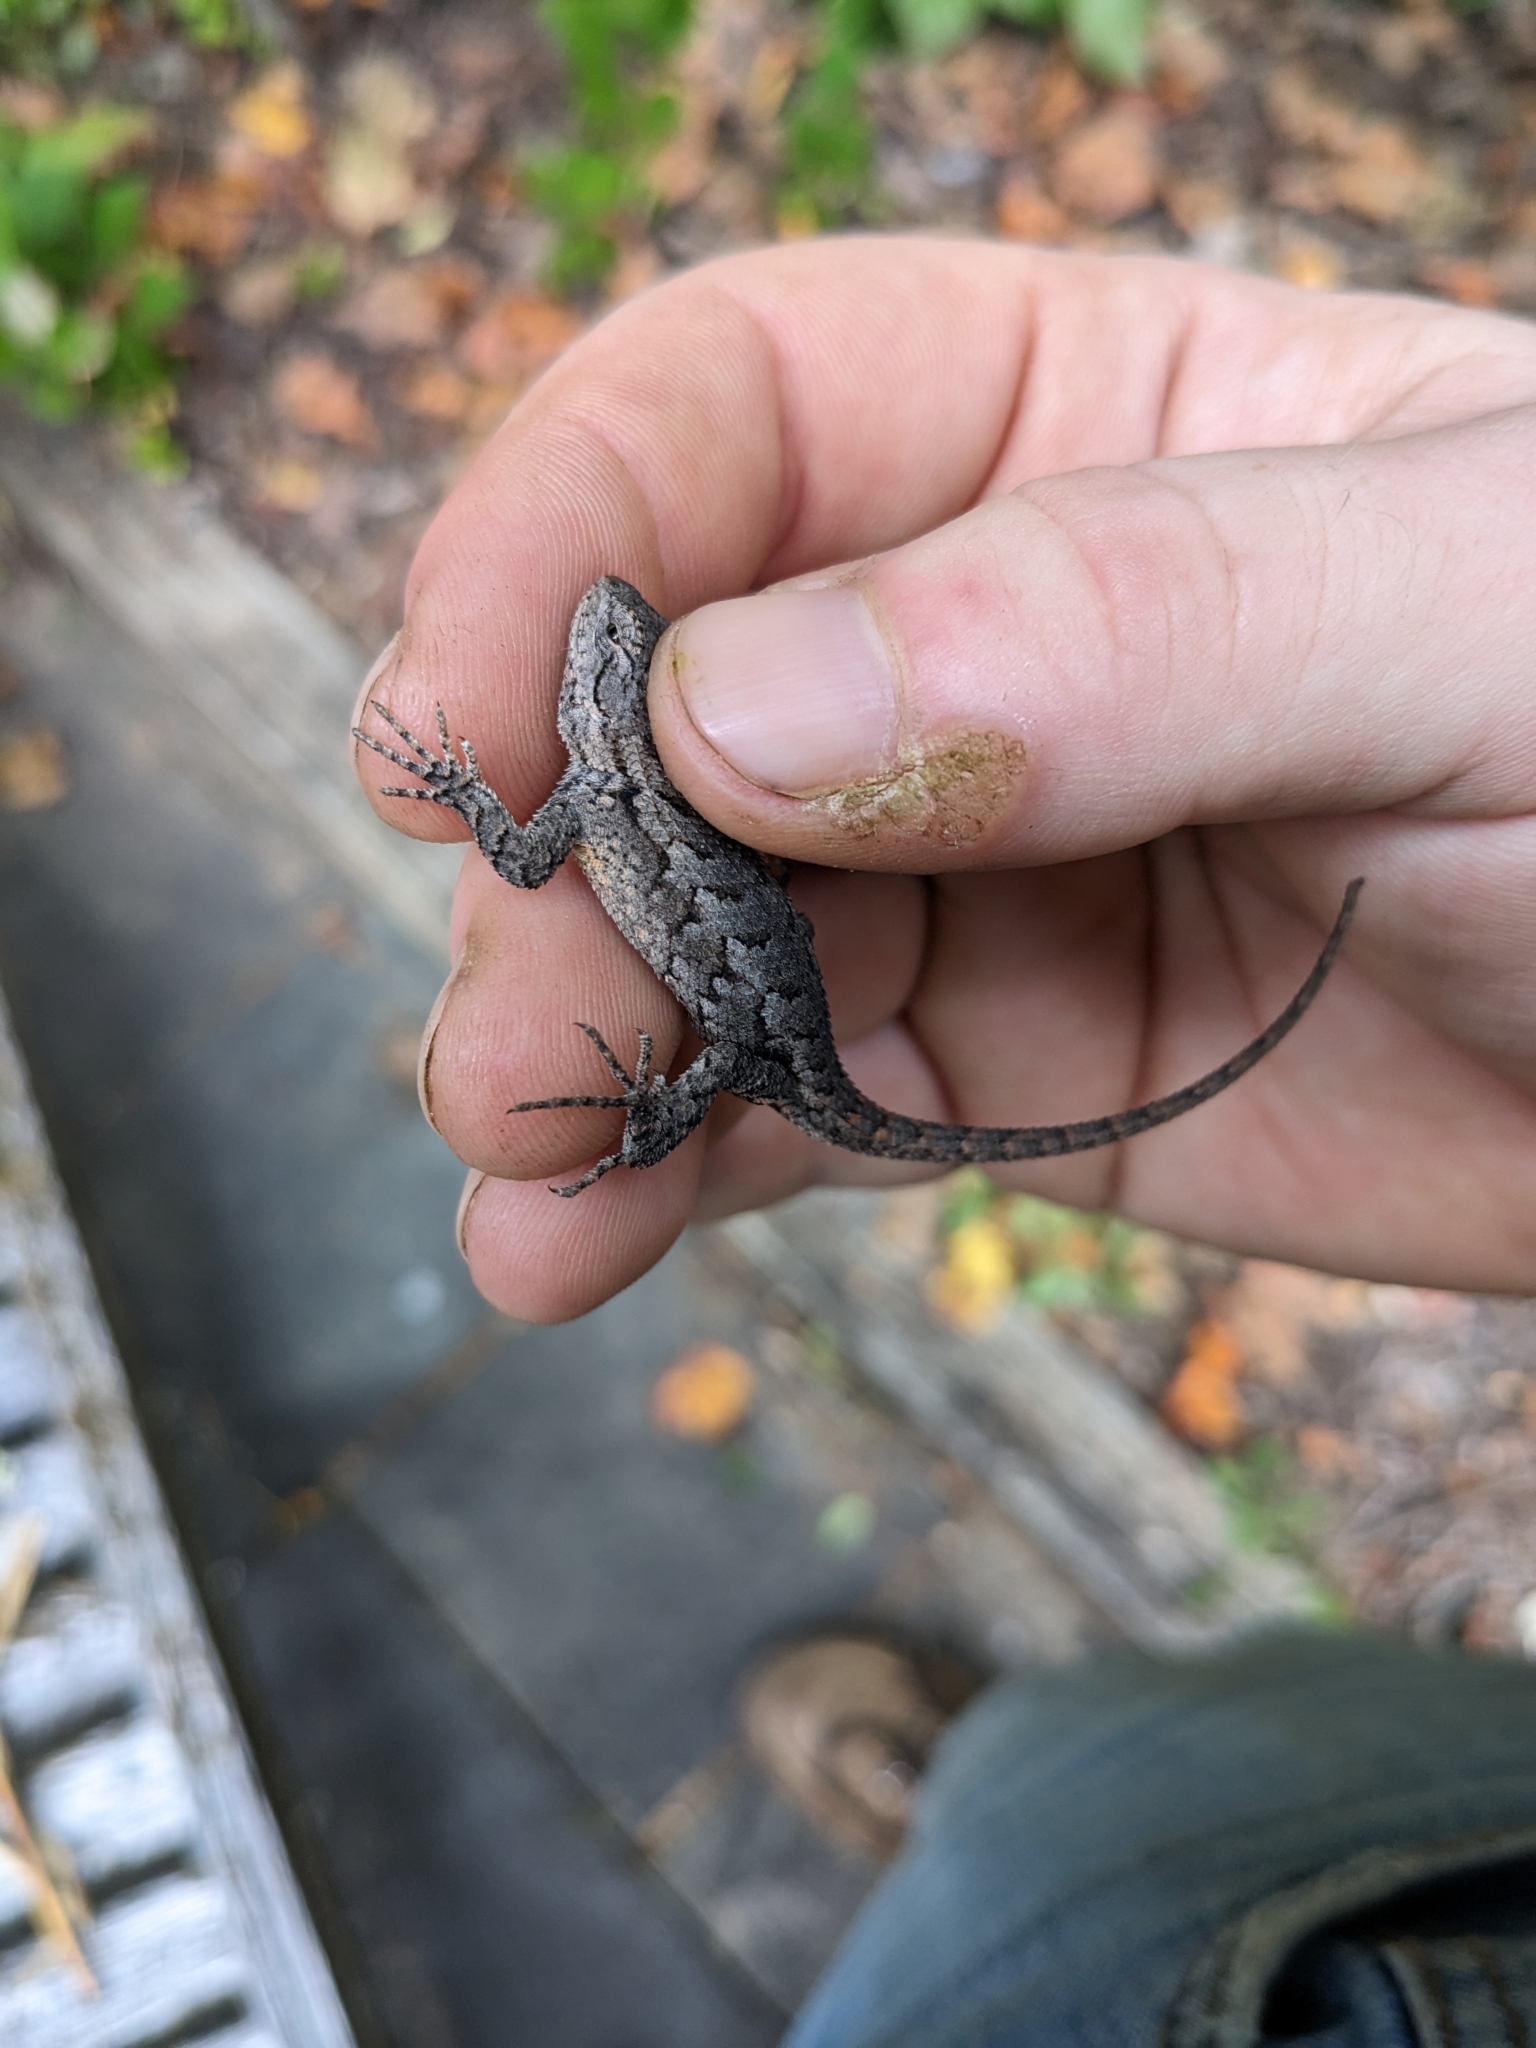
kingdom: Animalia
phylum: Chordata
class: Squamata
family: Phrynosomatidae
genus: Sceloporus
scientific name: Sceloporus undulatus
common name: Eastern fence lizard
